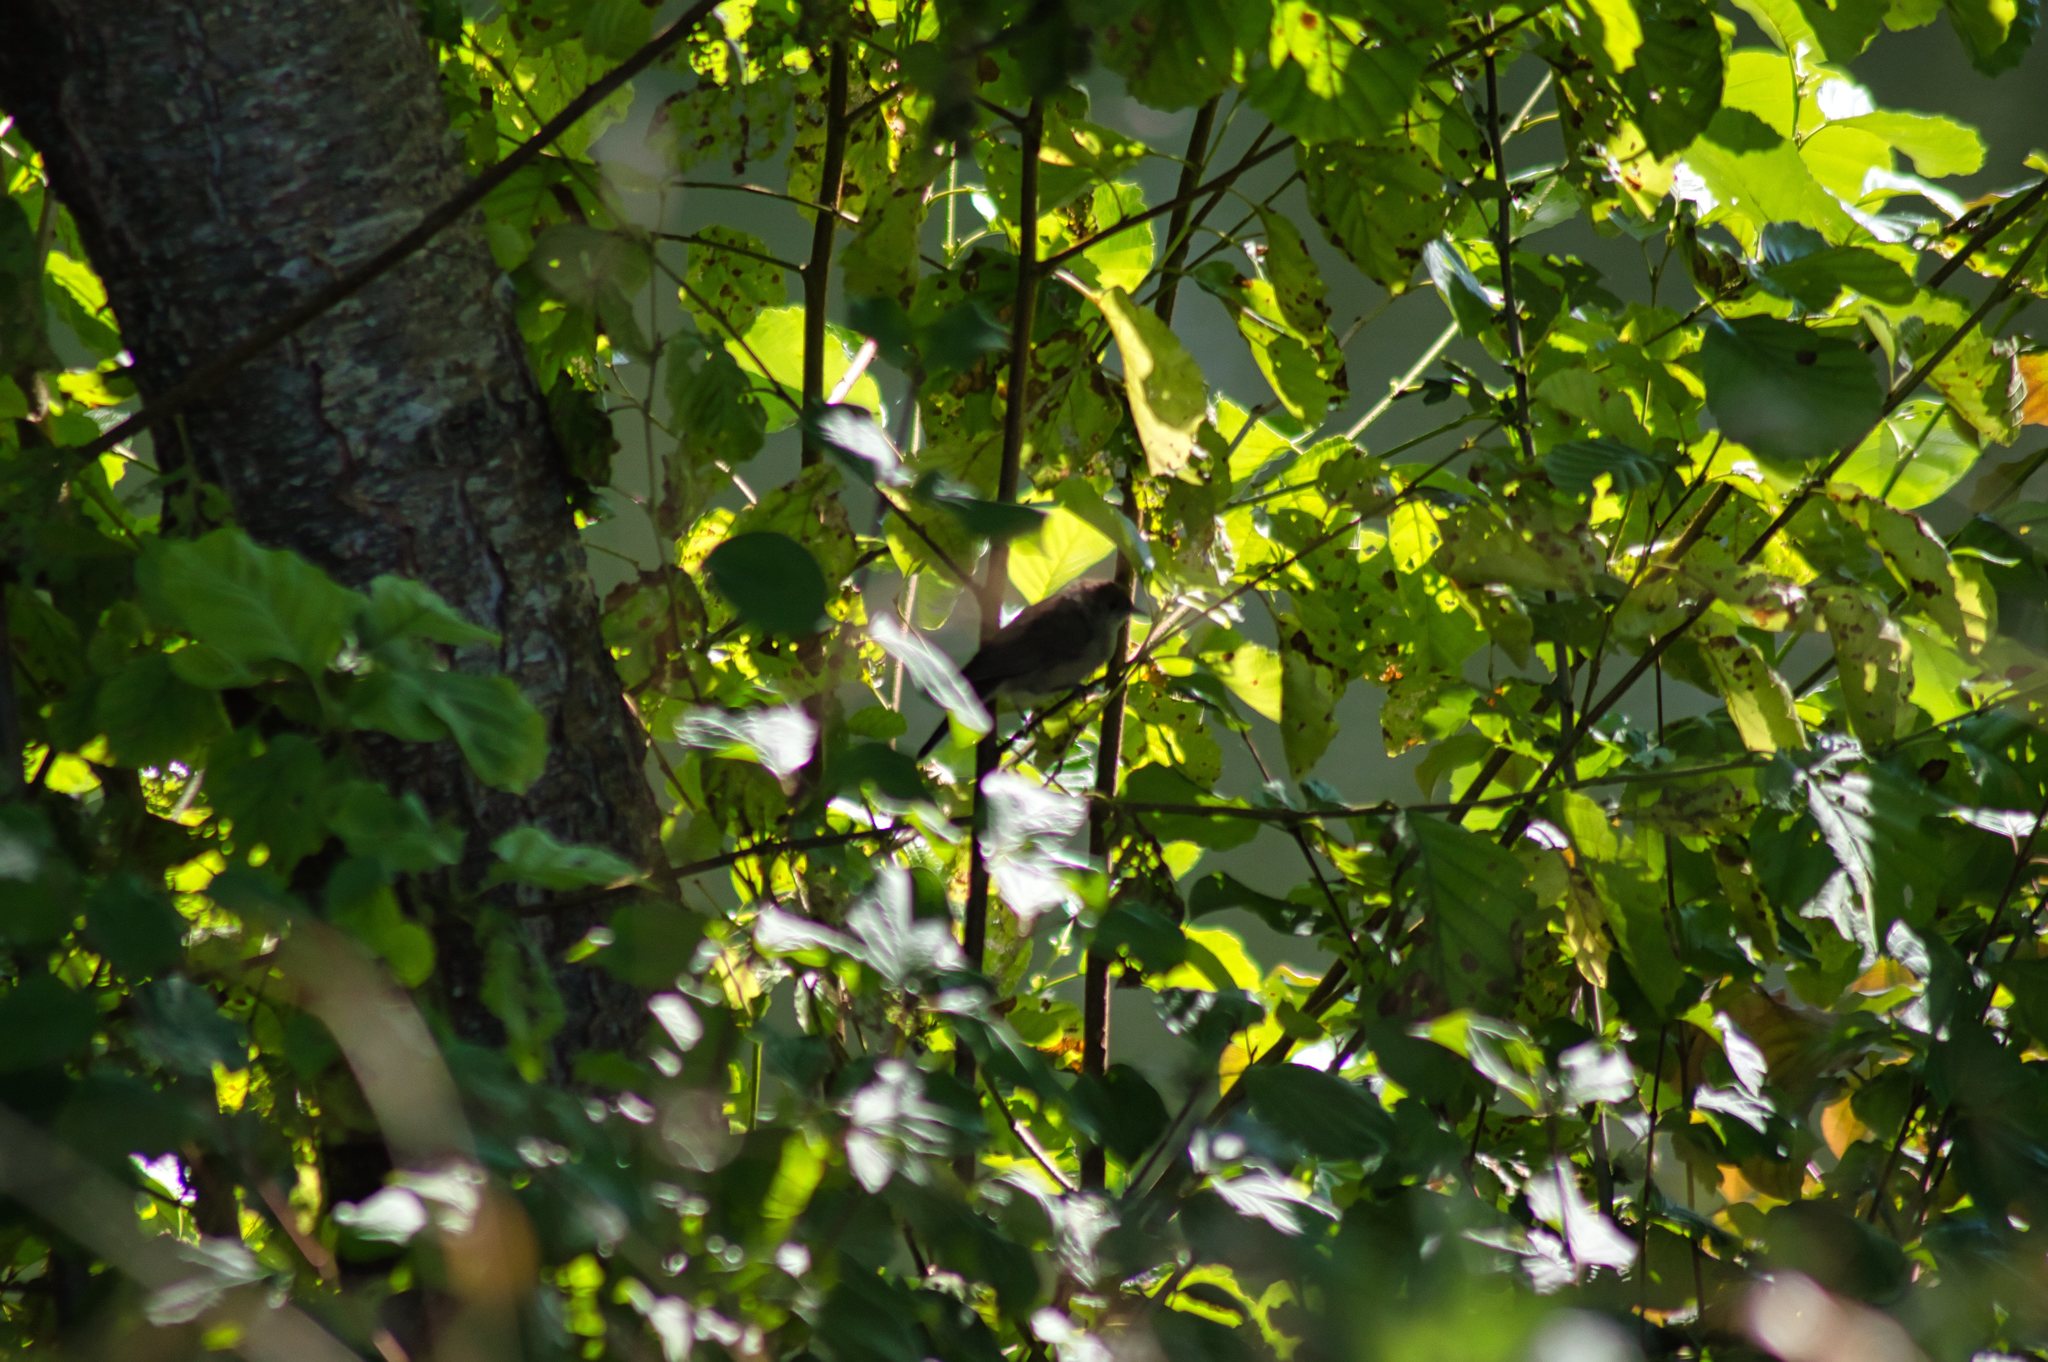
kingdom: Animalia
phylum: Chordata
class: Aves
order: Passeriformes
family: Sylviidae
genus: Sylvia
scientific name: Sylvia atricapilla
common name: Eurasian blackcap
